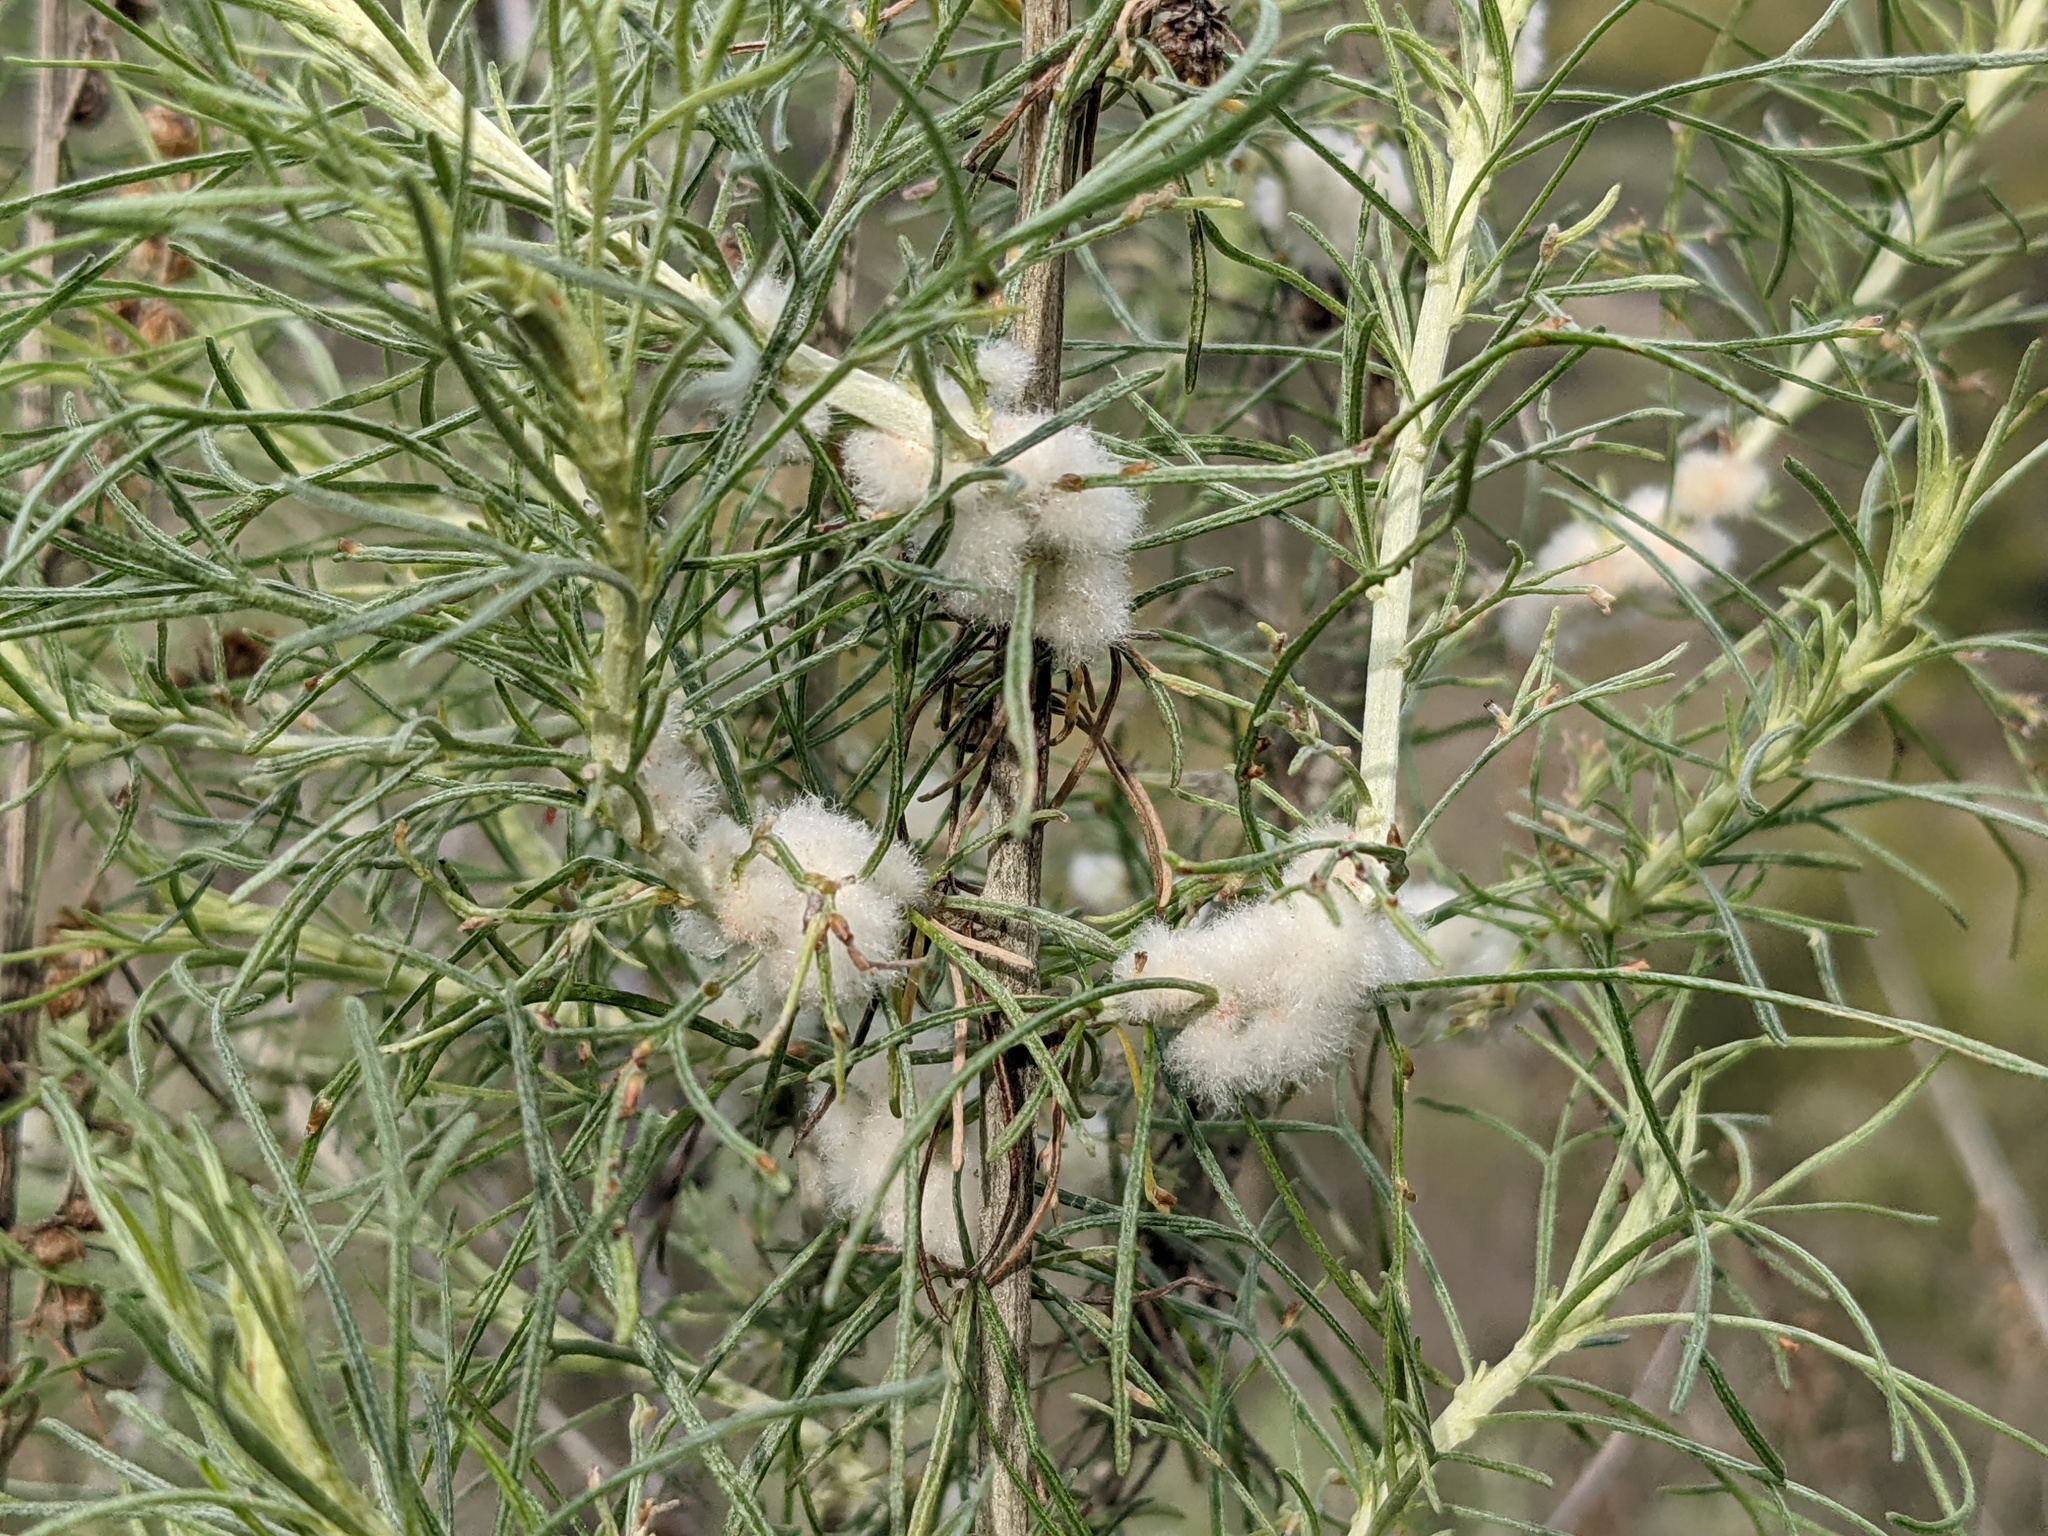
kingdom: Animalia
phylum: Arthropoda
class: Insecta
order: Diptera
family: Cecidomyiidae
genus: Rhopalomyia
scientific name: Rhopalomyia floccosa
